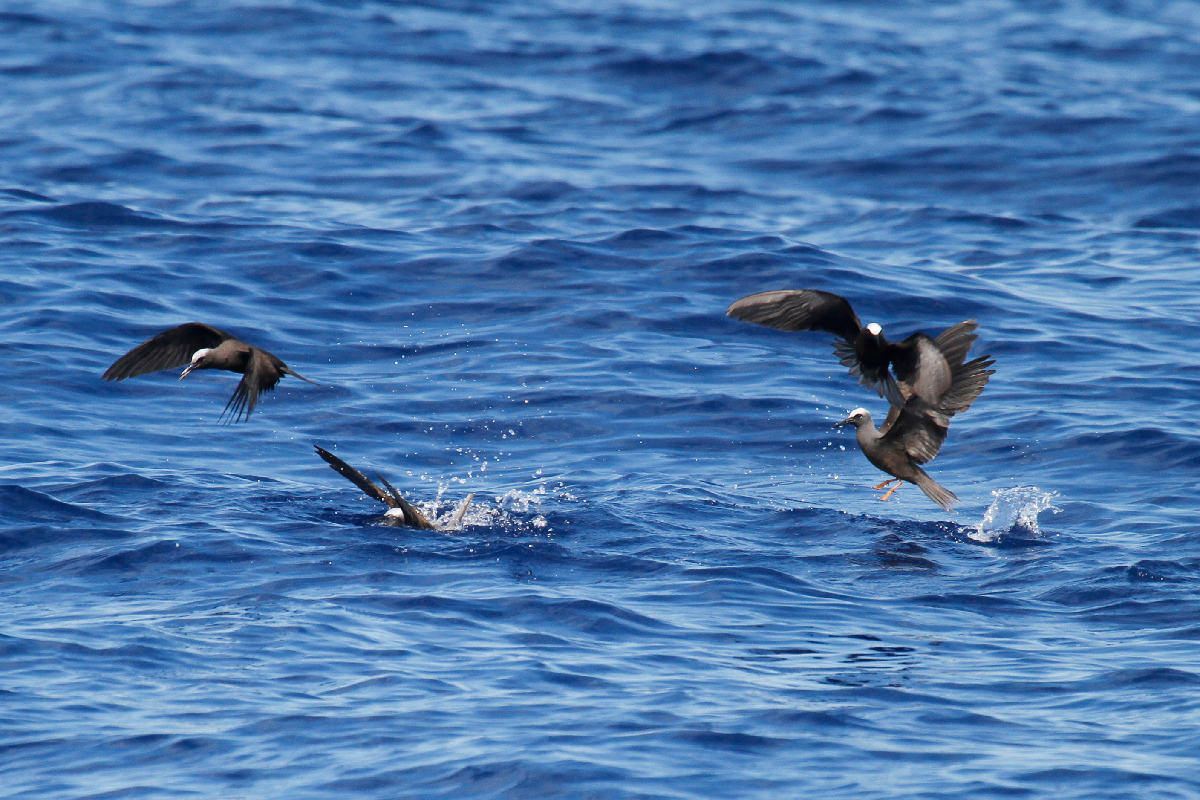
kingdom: Animalia
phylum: Chordata
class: Aves
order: Charadriiformes
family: Laridae
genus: Anous
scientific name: Anous minutus
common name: Black noddy
